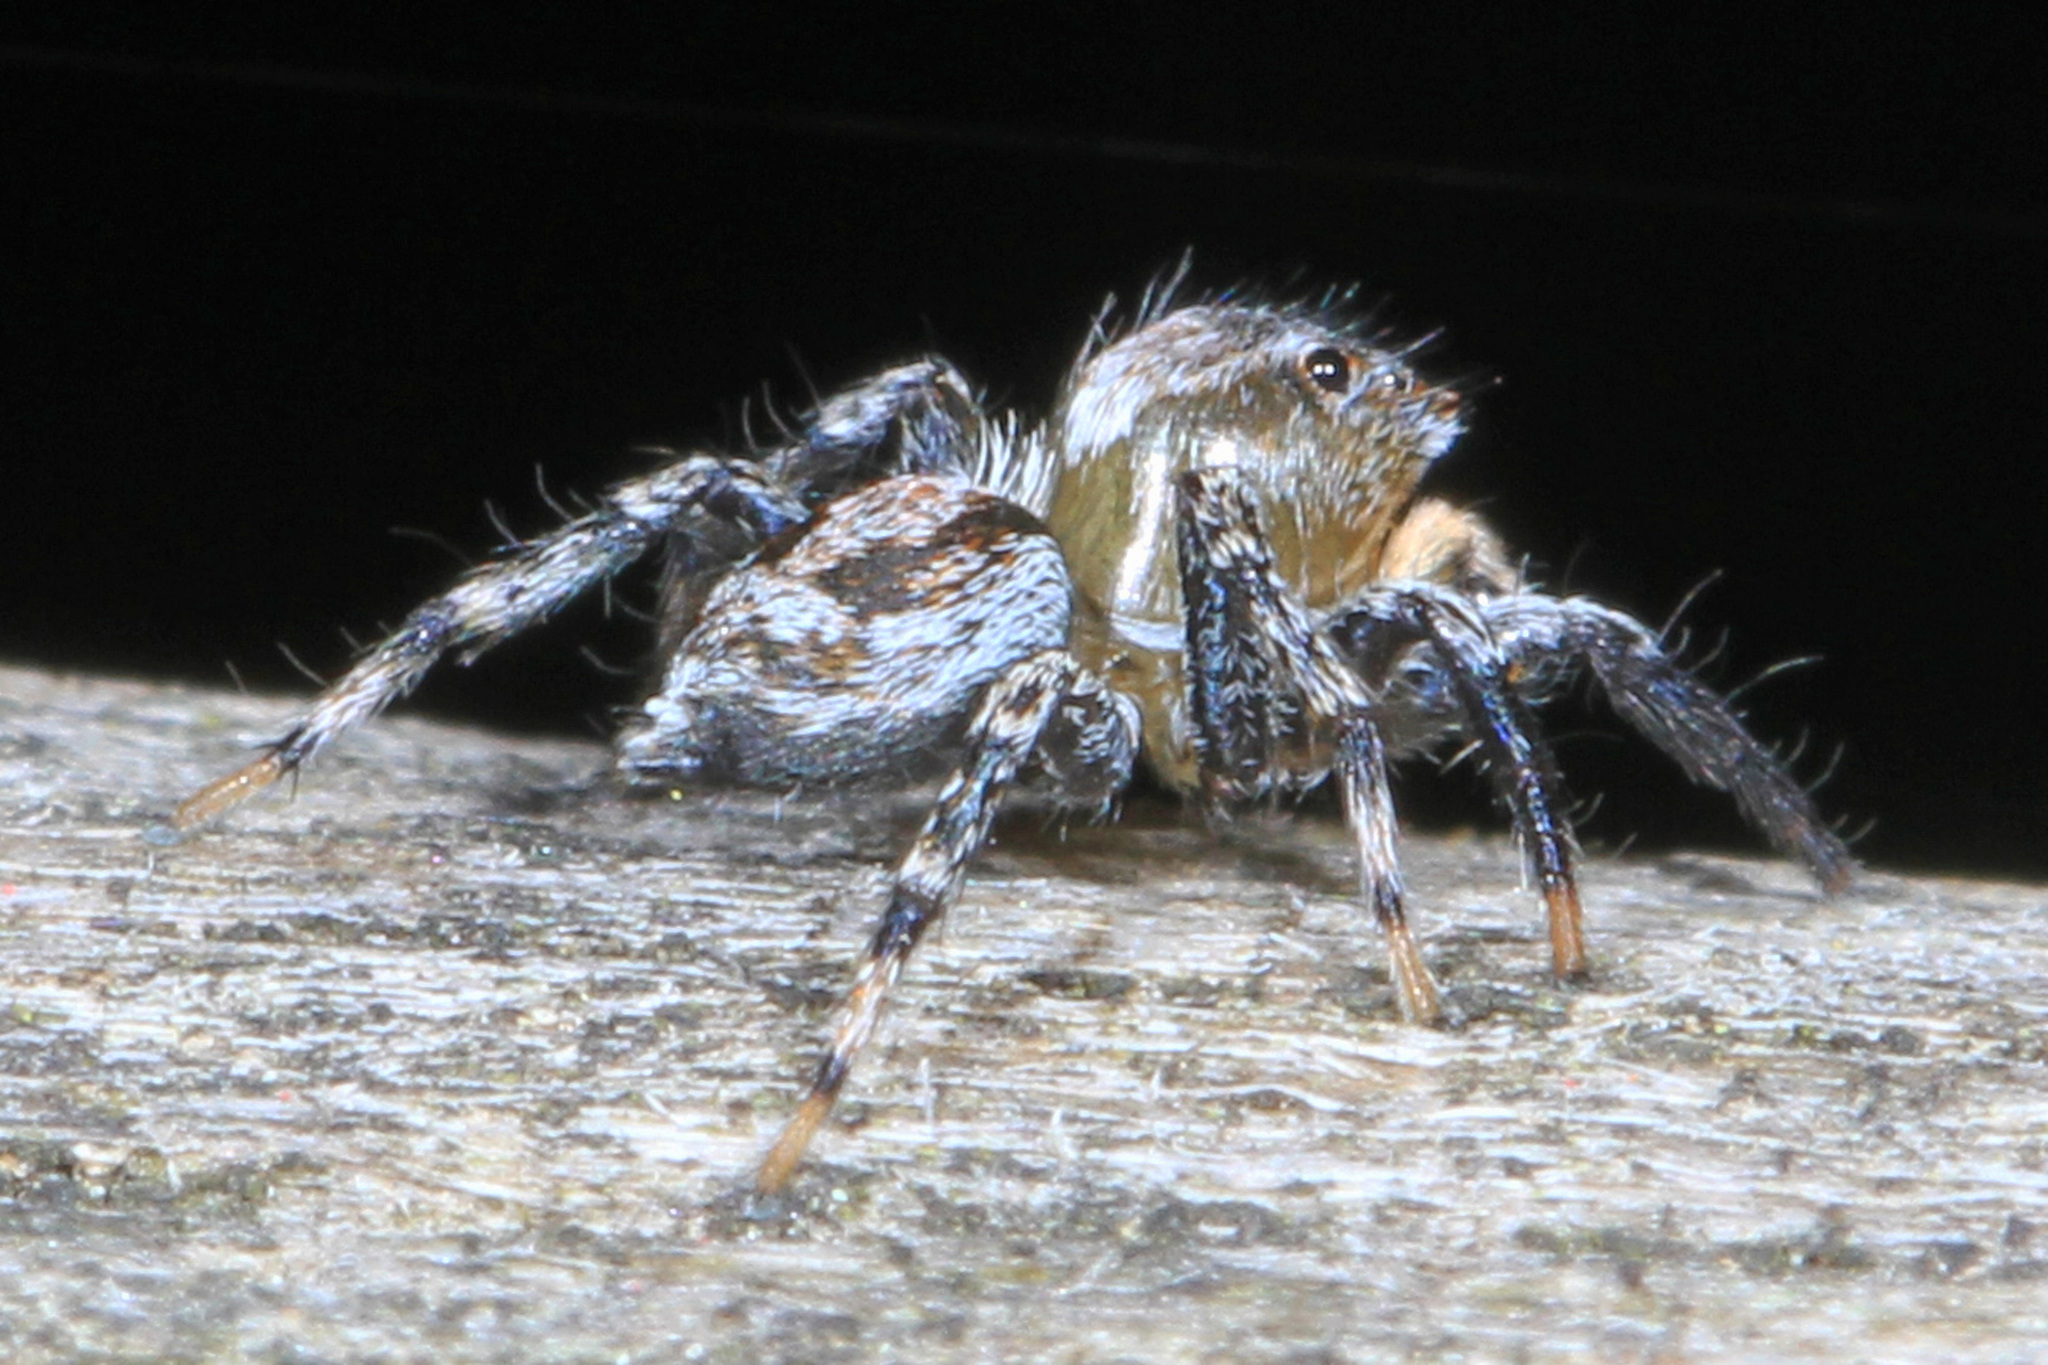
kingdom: Animalia
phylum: Arthropoda
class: Arachnida
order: Araneae
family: Salticidae
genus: Naphrys
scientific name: Naphrys pulex
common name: Flea jumping spider
